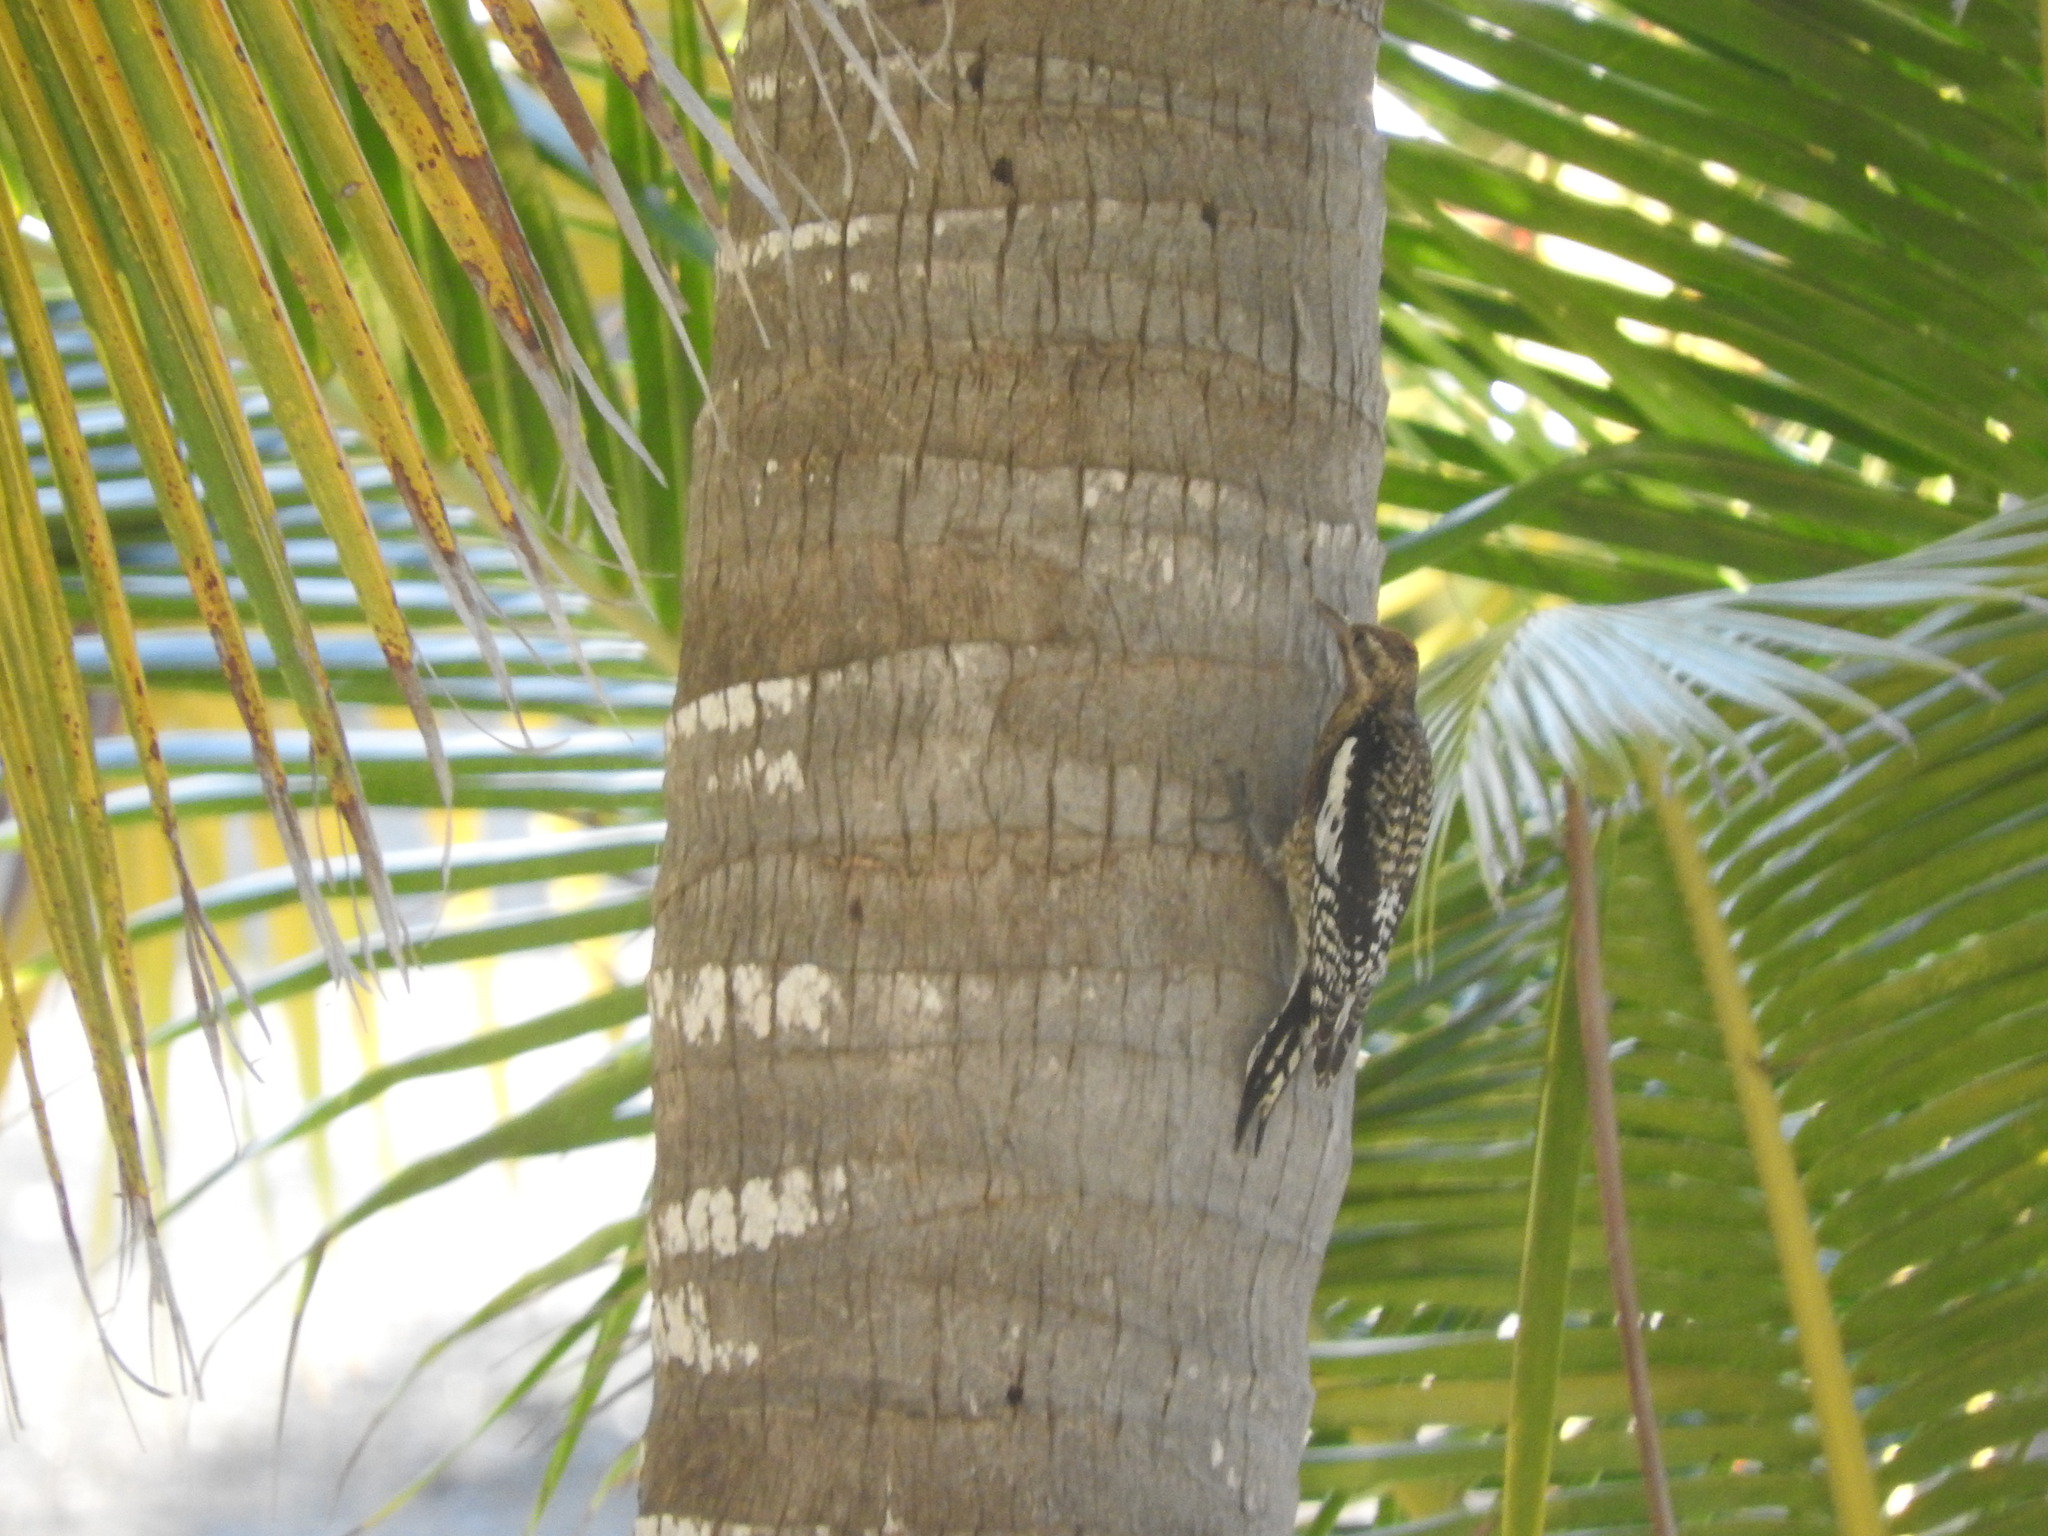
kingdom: Animalia
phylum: Chordata
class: Aves
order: Piciformes
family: Picidae
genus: Sphyrapicus
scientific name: Sphyrapicus varius
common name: Yellow-bellied sapsucker
